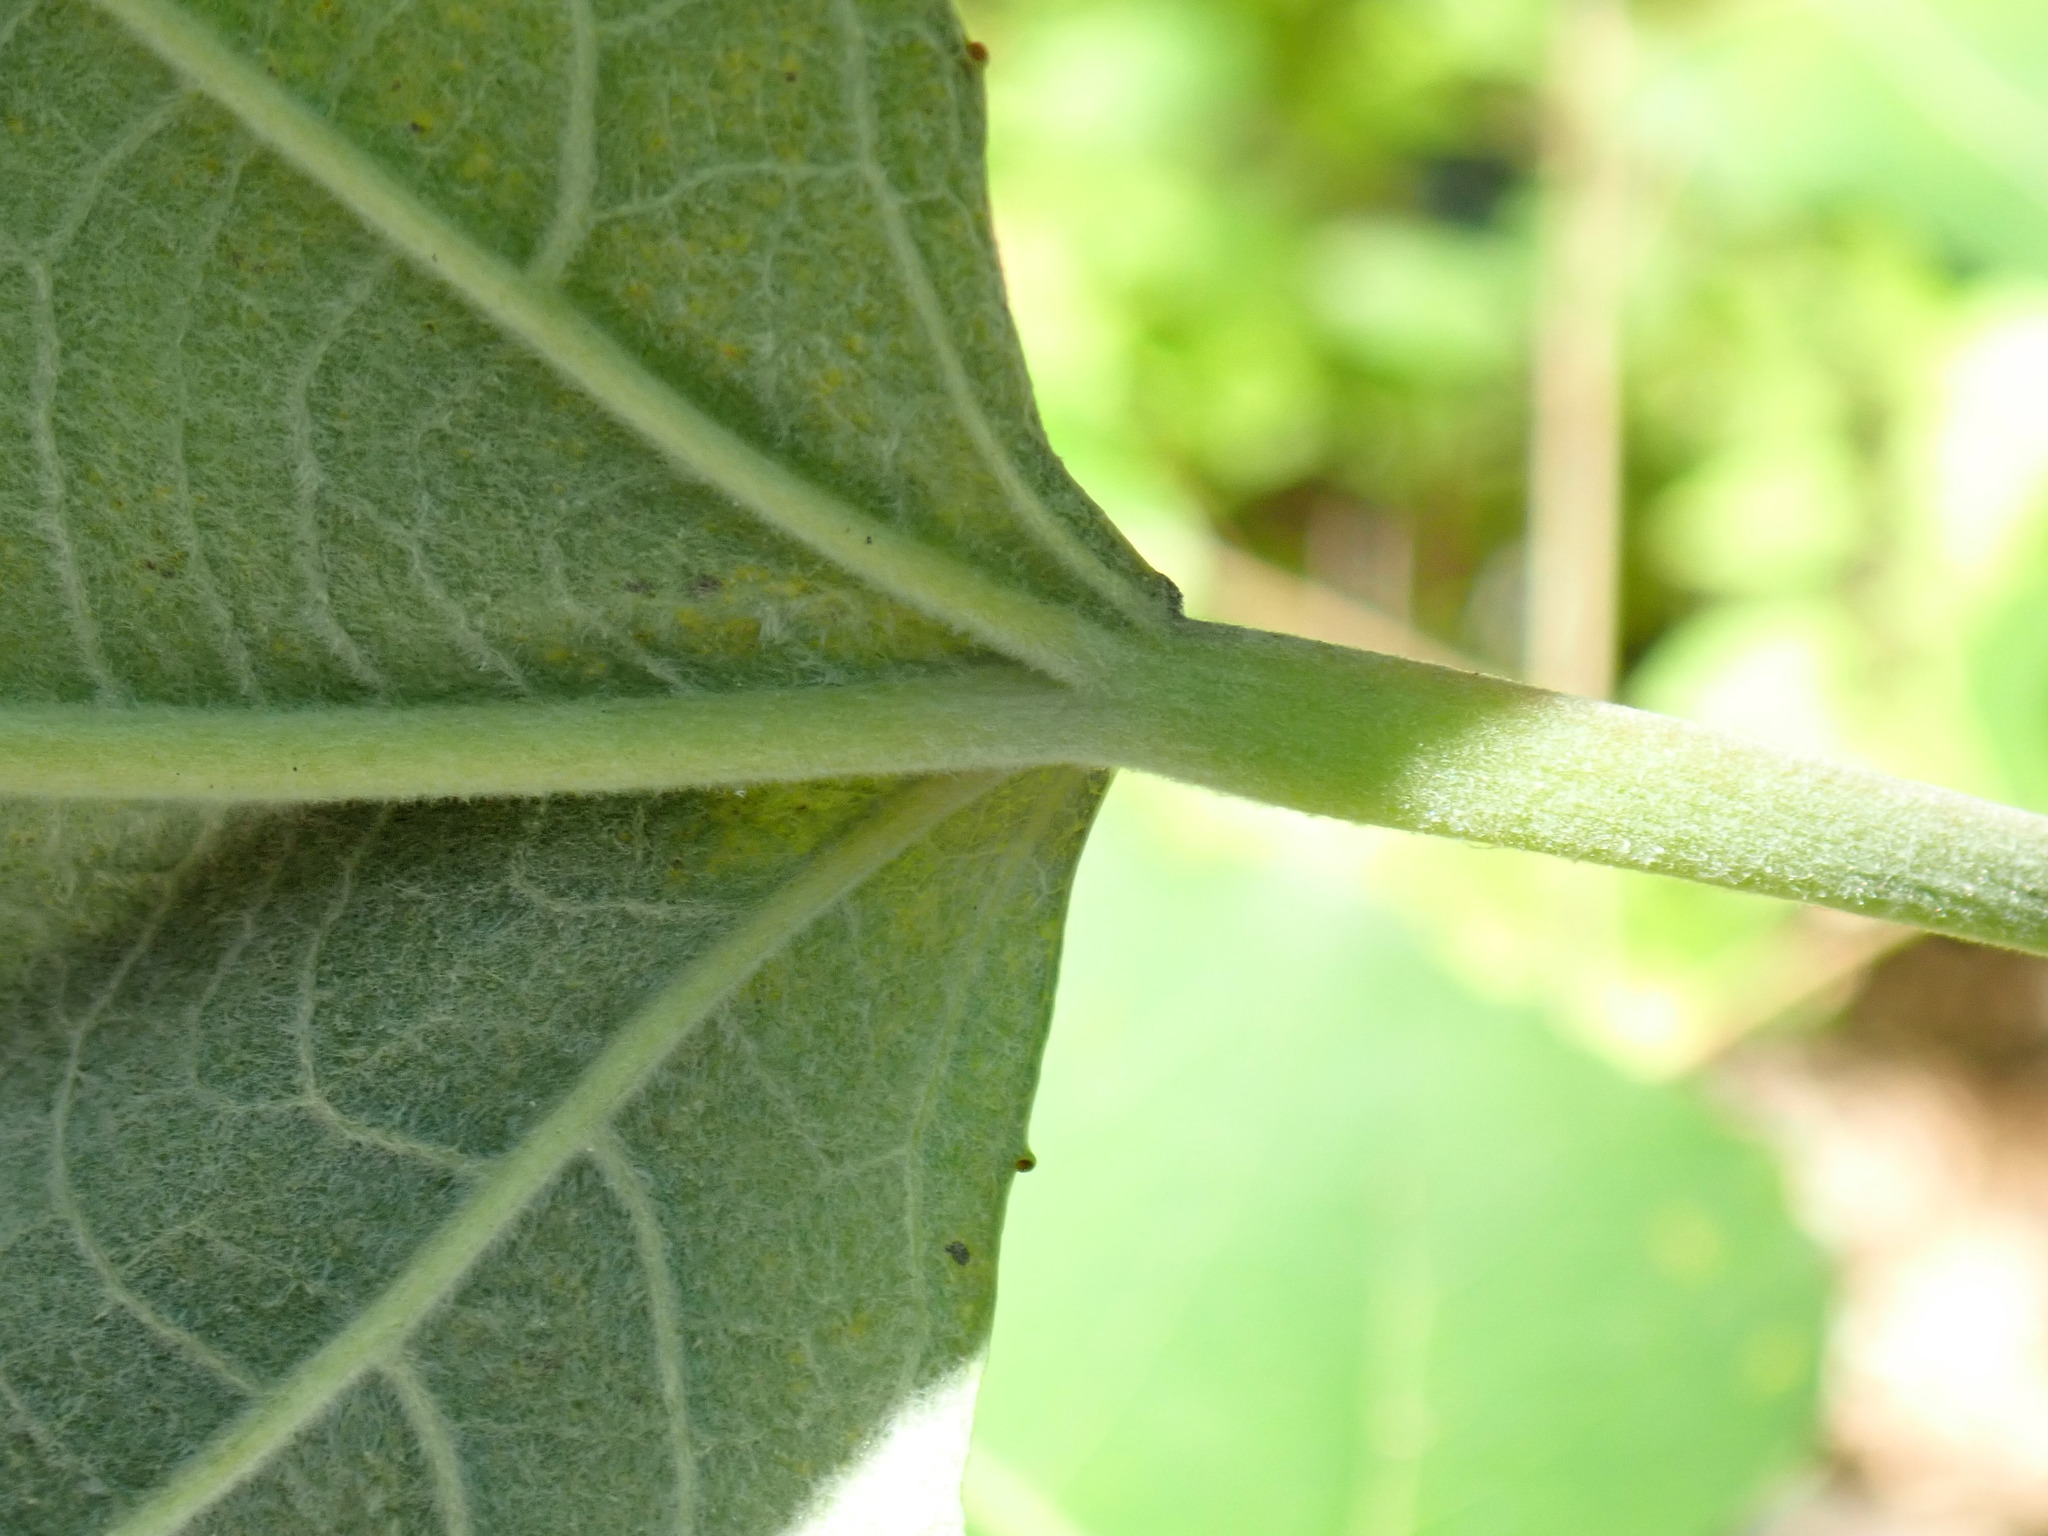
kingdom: Plantae
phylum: Tracheophyta
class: Magnoliopsida
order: Malpighiales
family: Salicaceae
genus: Populus
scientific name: Populus grandidentata
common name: Bigtooth aspen
